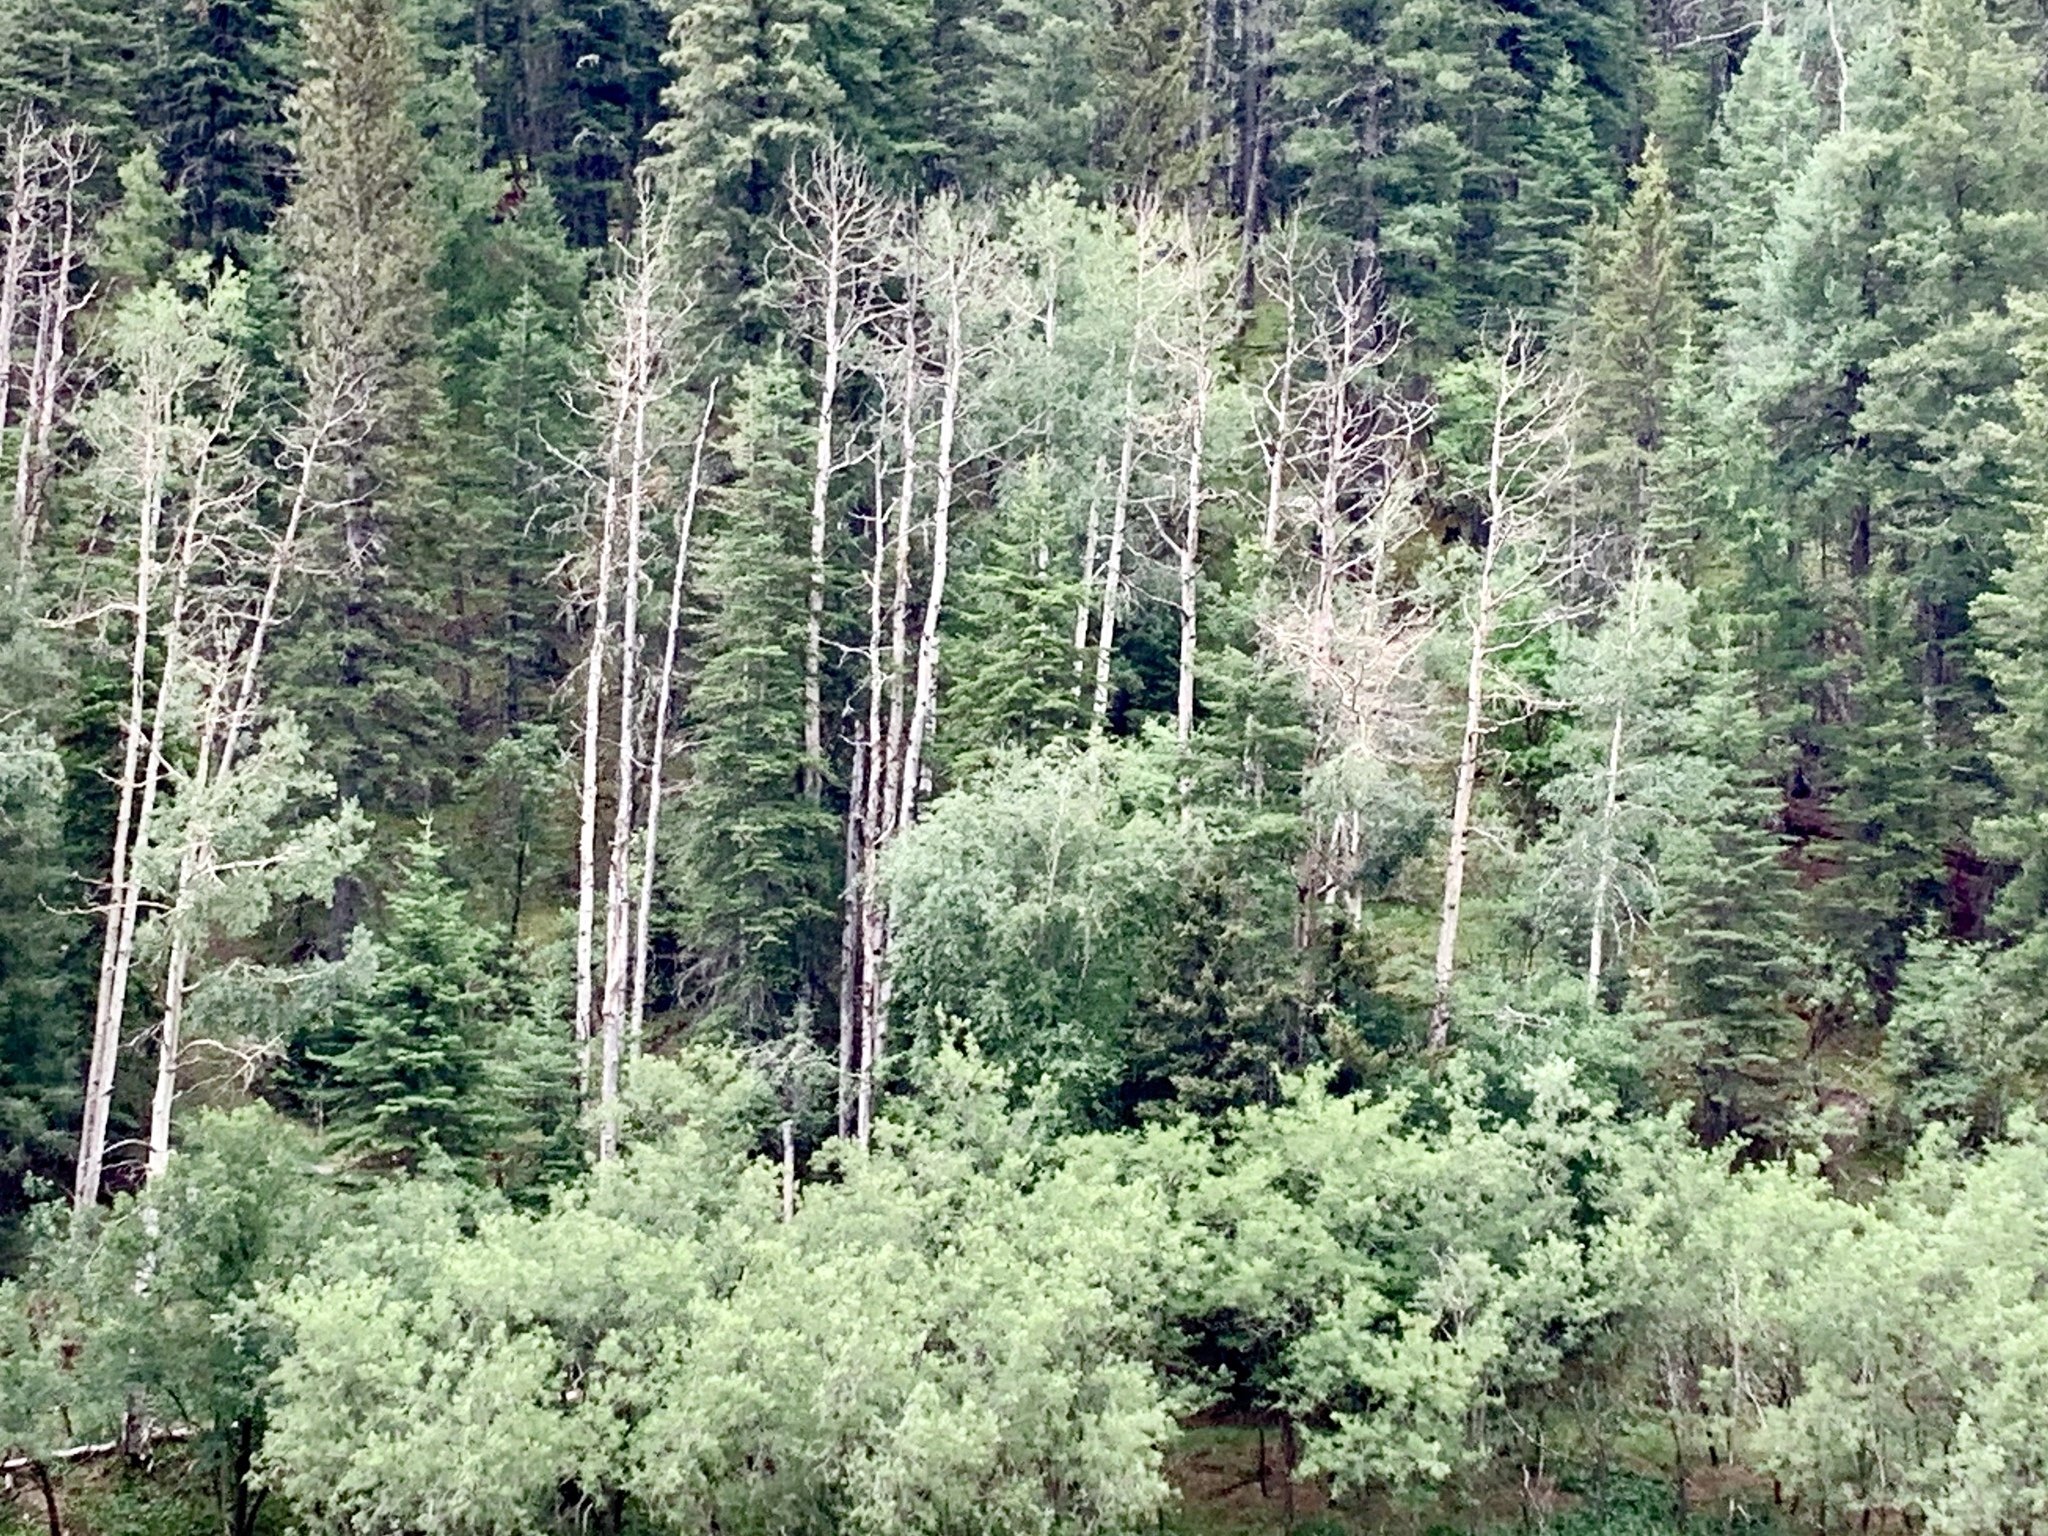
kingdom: Plantae
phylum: Tracheophyta
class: Magnoliopsida
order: Malpighiales
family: Salicaceae
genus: Populus
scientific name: Populus tremuloides
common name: Quaking aspen
